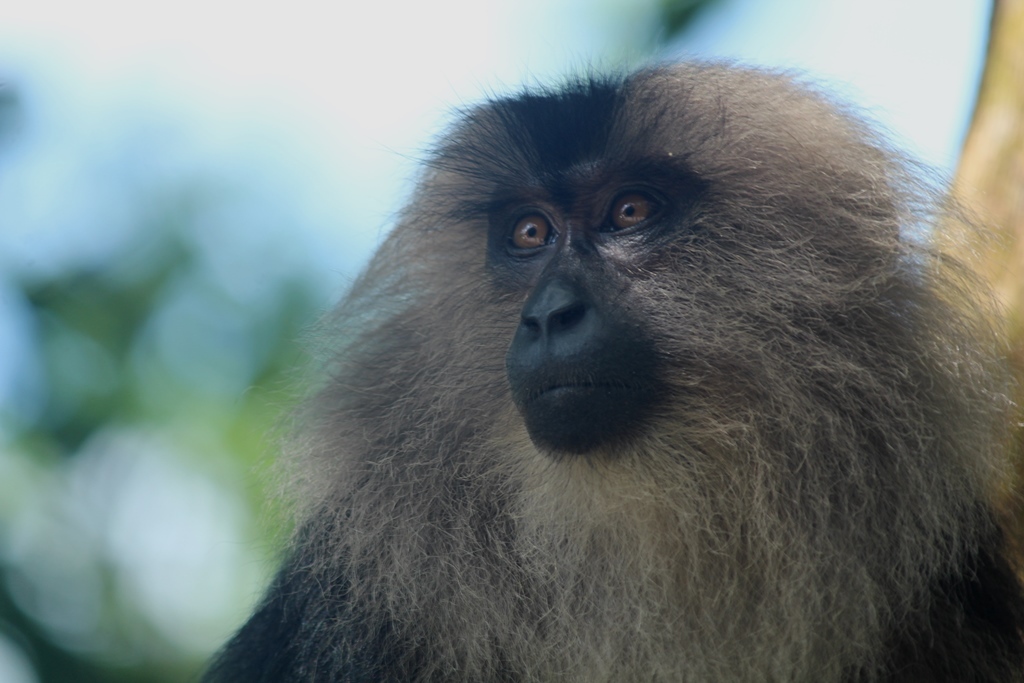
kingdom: Animalia
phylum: Chordata
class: Mammalia
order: Primates
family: Cercopithecidae
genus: Macaca
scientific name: Macaca silenus
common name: Lion-tailed macaque
